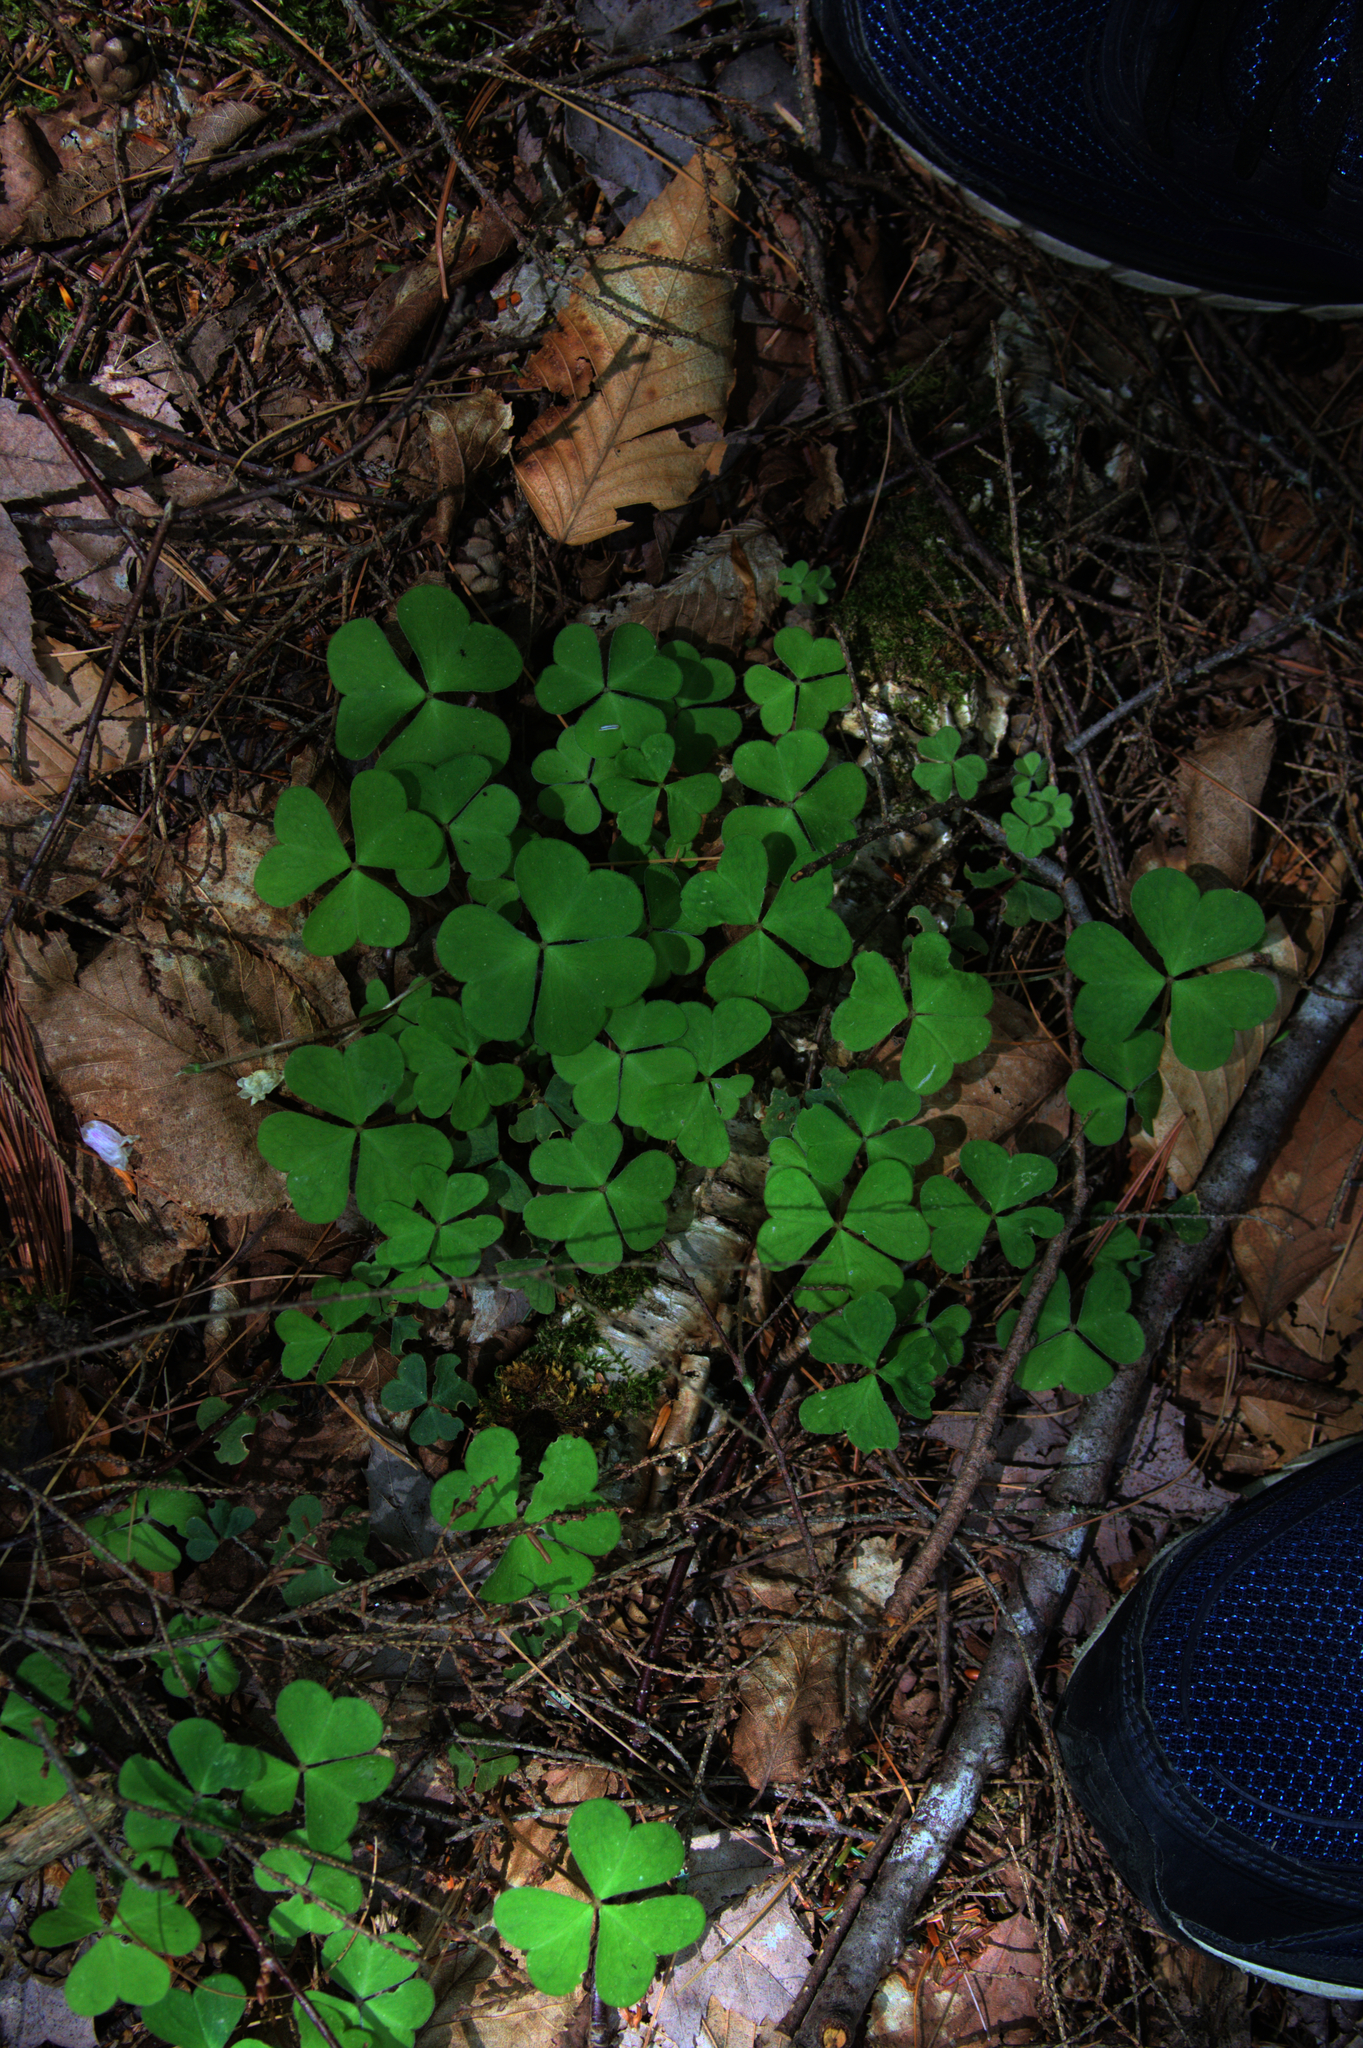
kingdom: Plantae
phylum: Tracheophyta
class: Magnoliopsida
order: Oxalidales
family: Oxalidaceae
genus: Oxalis
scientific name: Oxalis montana
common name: American wood-sorrel
